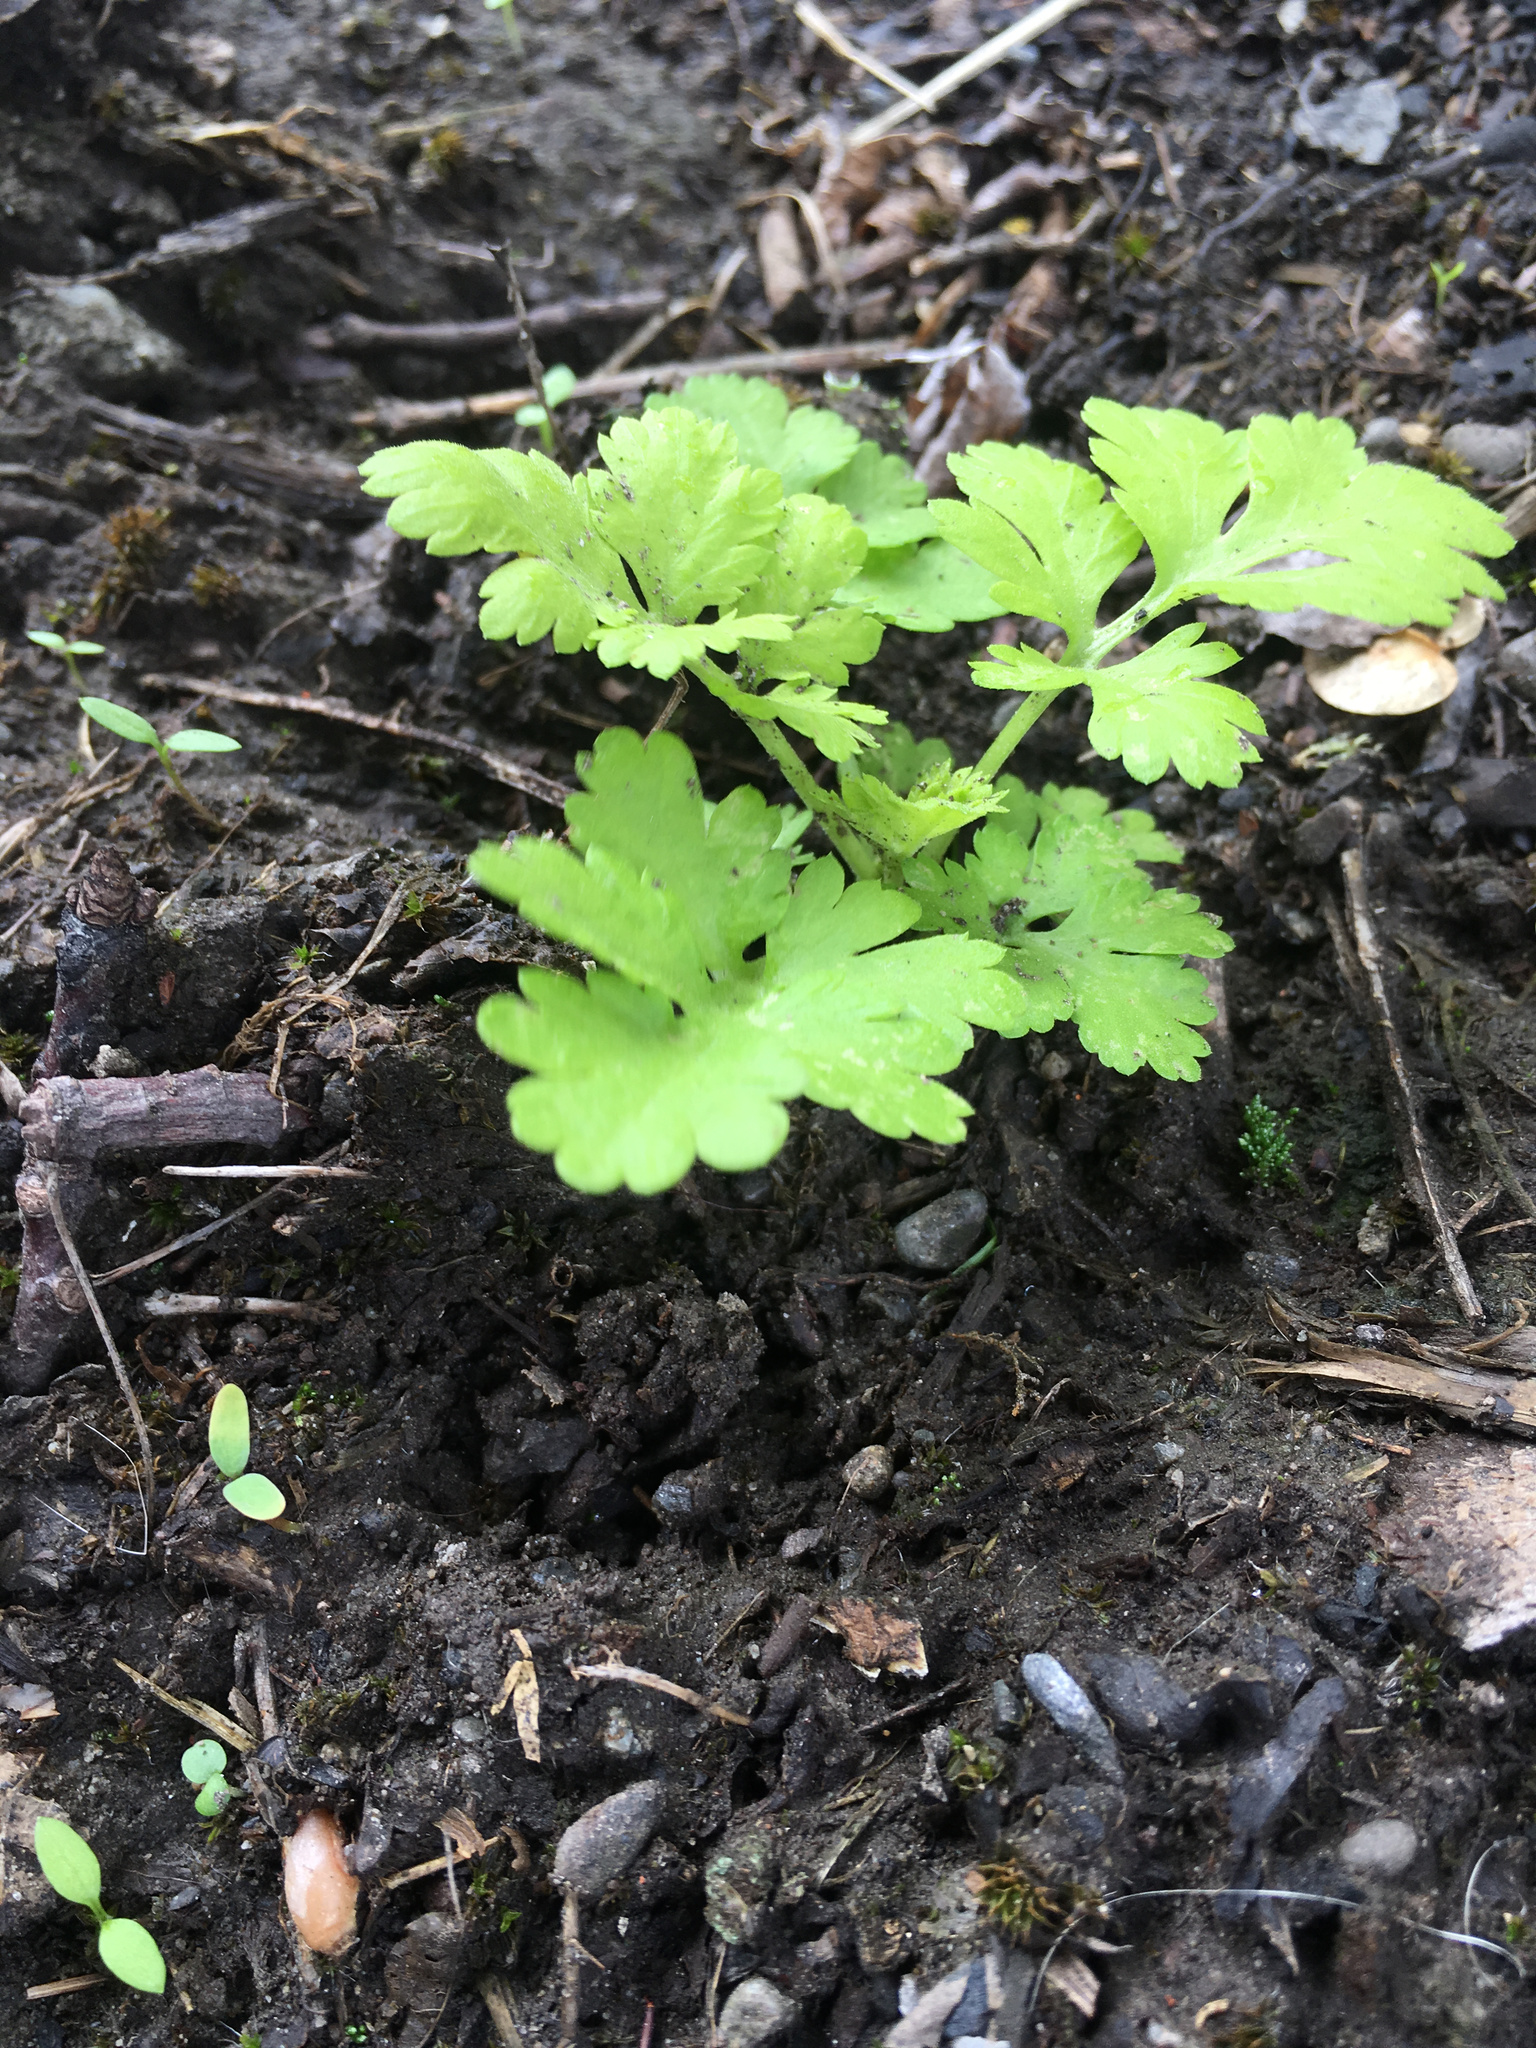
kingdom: Plantae
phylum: Tracheophyta
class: Magnoliopsida
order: Asterales
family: Asteraceae
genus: Tanacetum
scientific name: Tanacetum parthenium
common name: Feverfew
